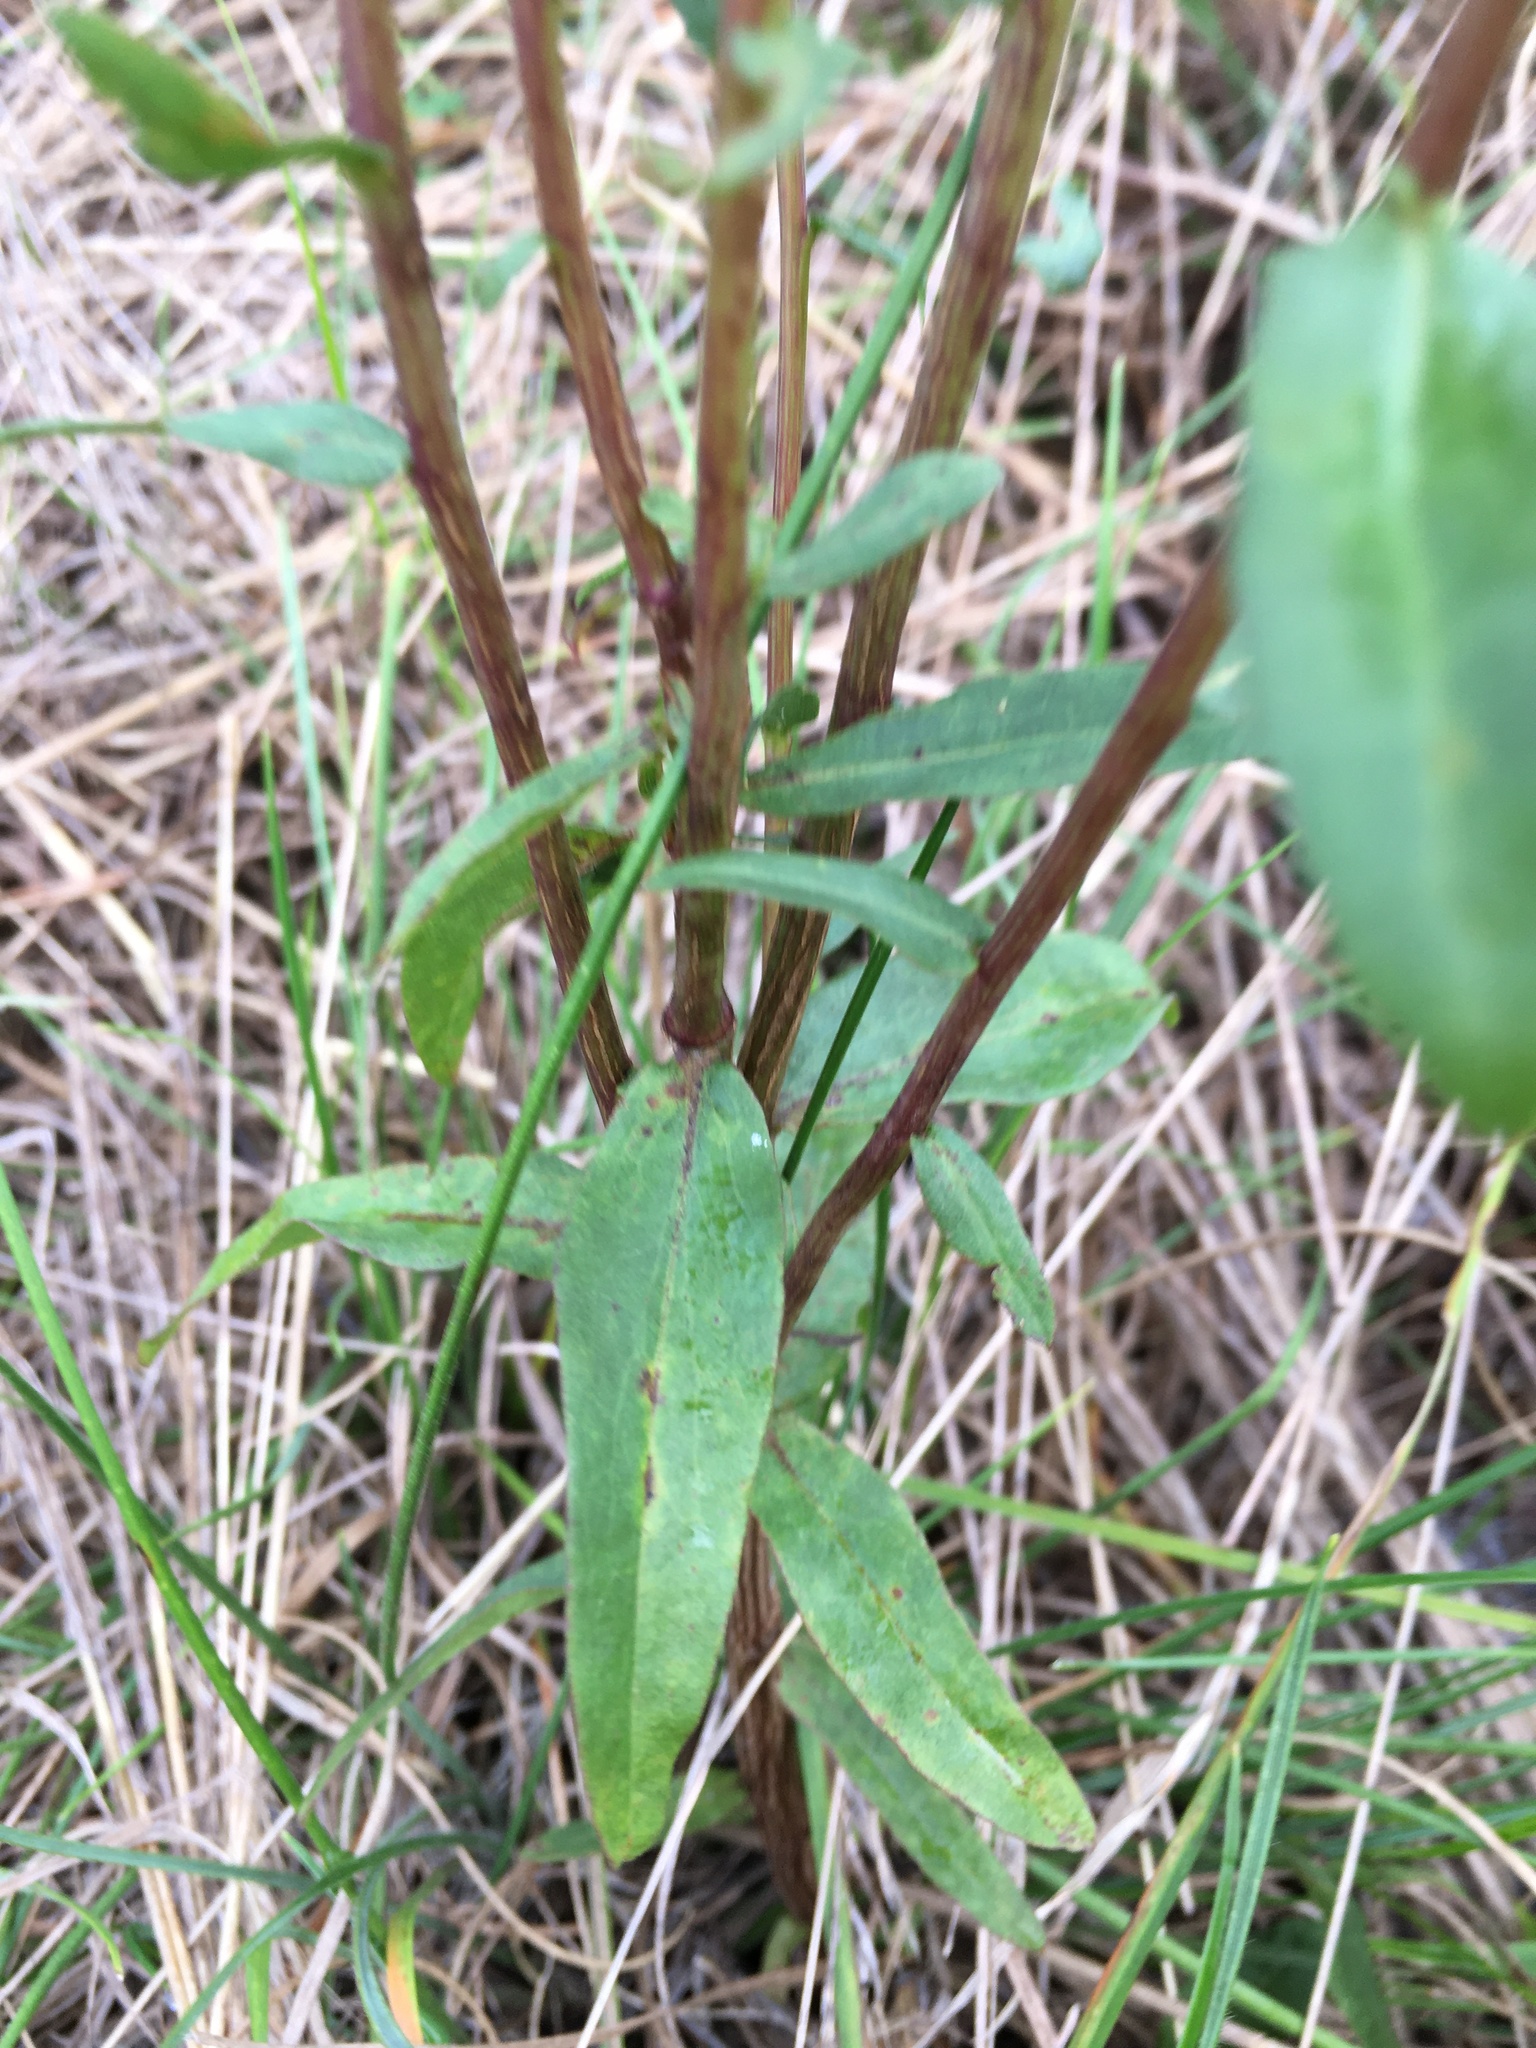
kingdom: Plantae
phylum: Tracheophyta
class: Magnoliopsida
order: Asterales
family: Asteraceae
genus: Solidago
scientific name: Solidago odora
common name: Anise-scented goldenrod
